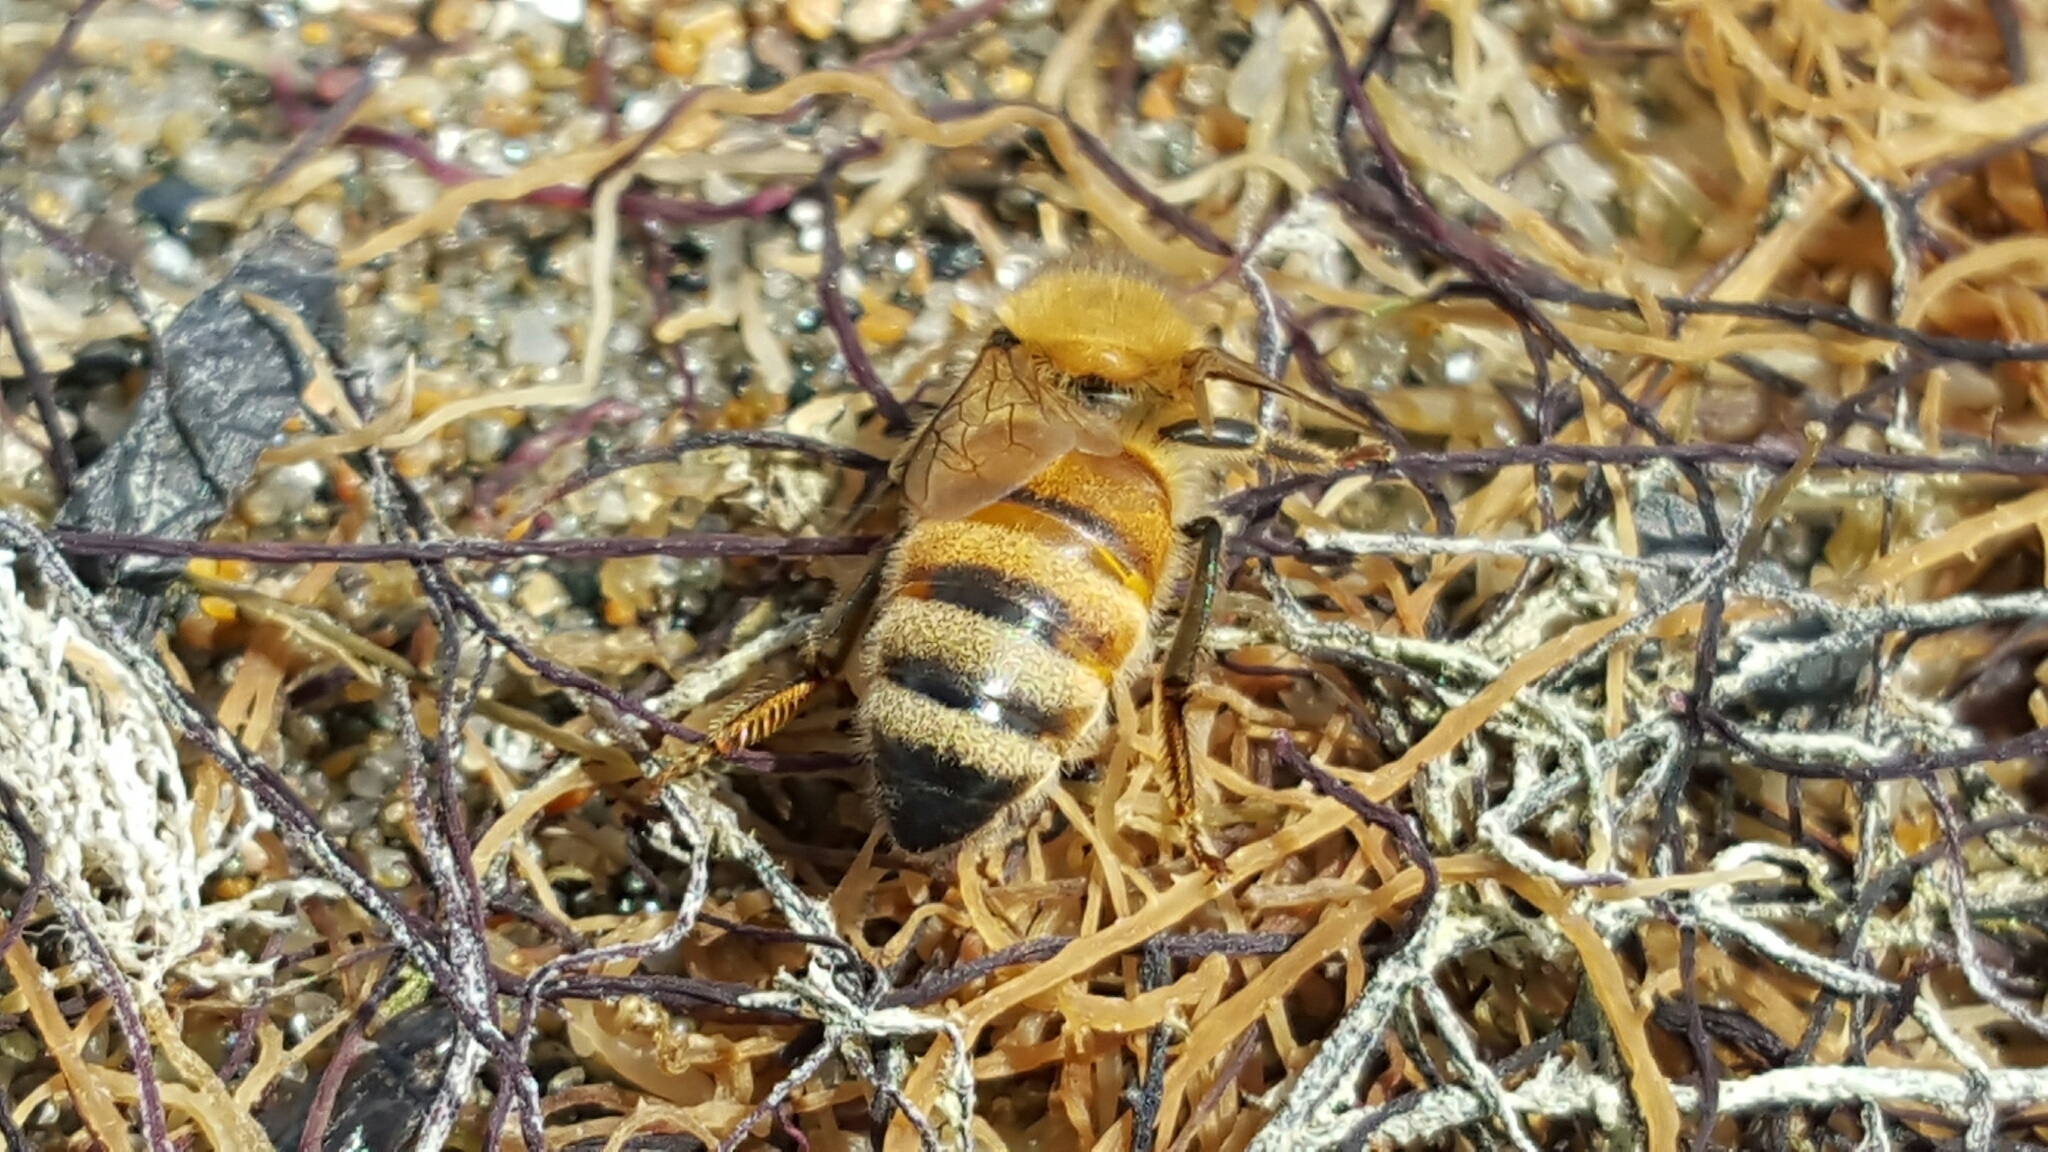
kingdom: Animalia
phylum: Arthropoda
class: Insecta
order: Hymenoptera
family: Apidae
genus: Apis
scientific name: Apis mellifera
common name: Honey bee
